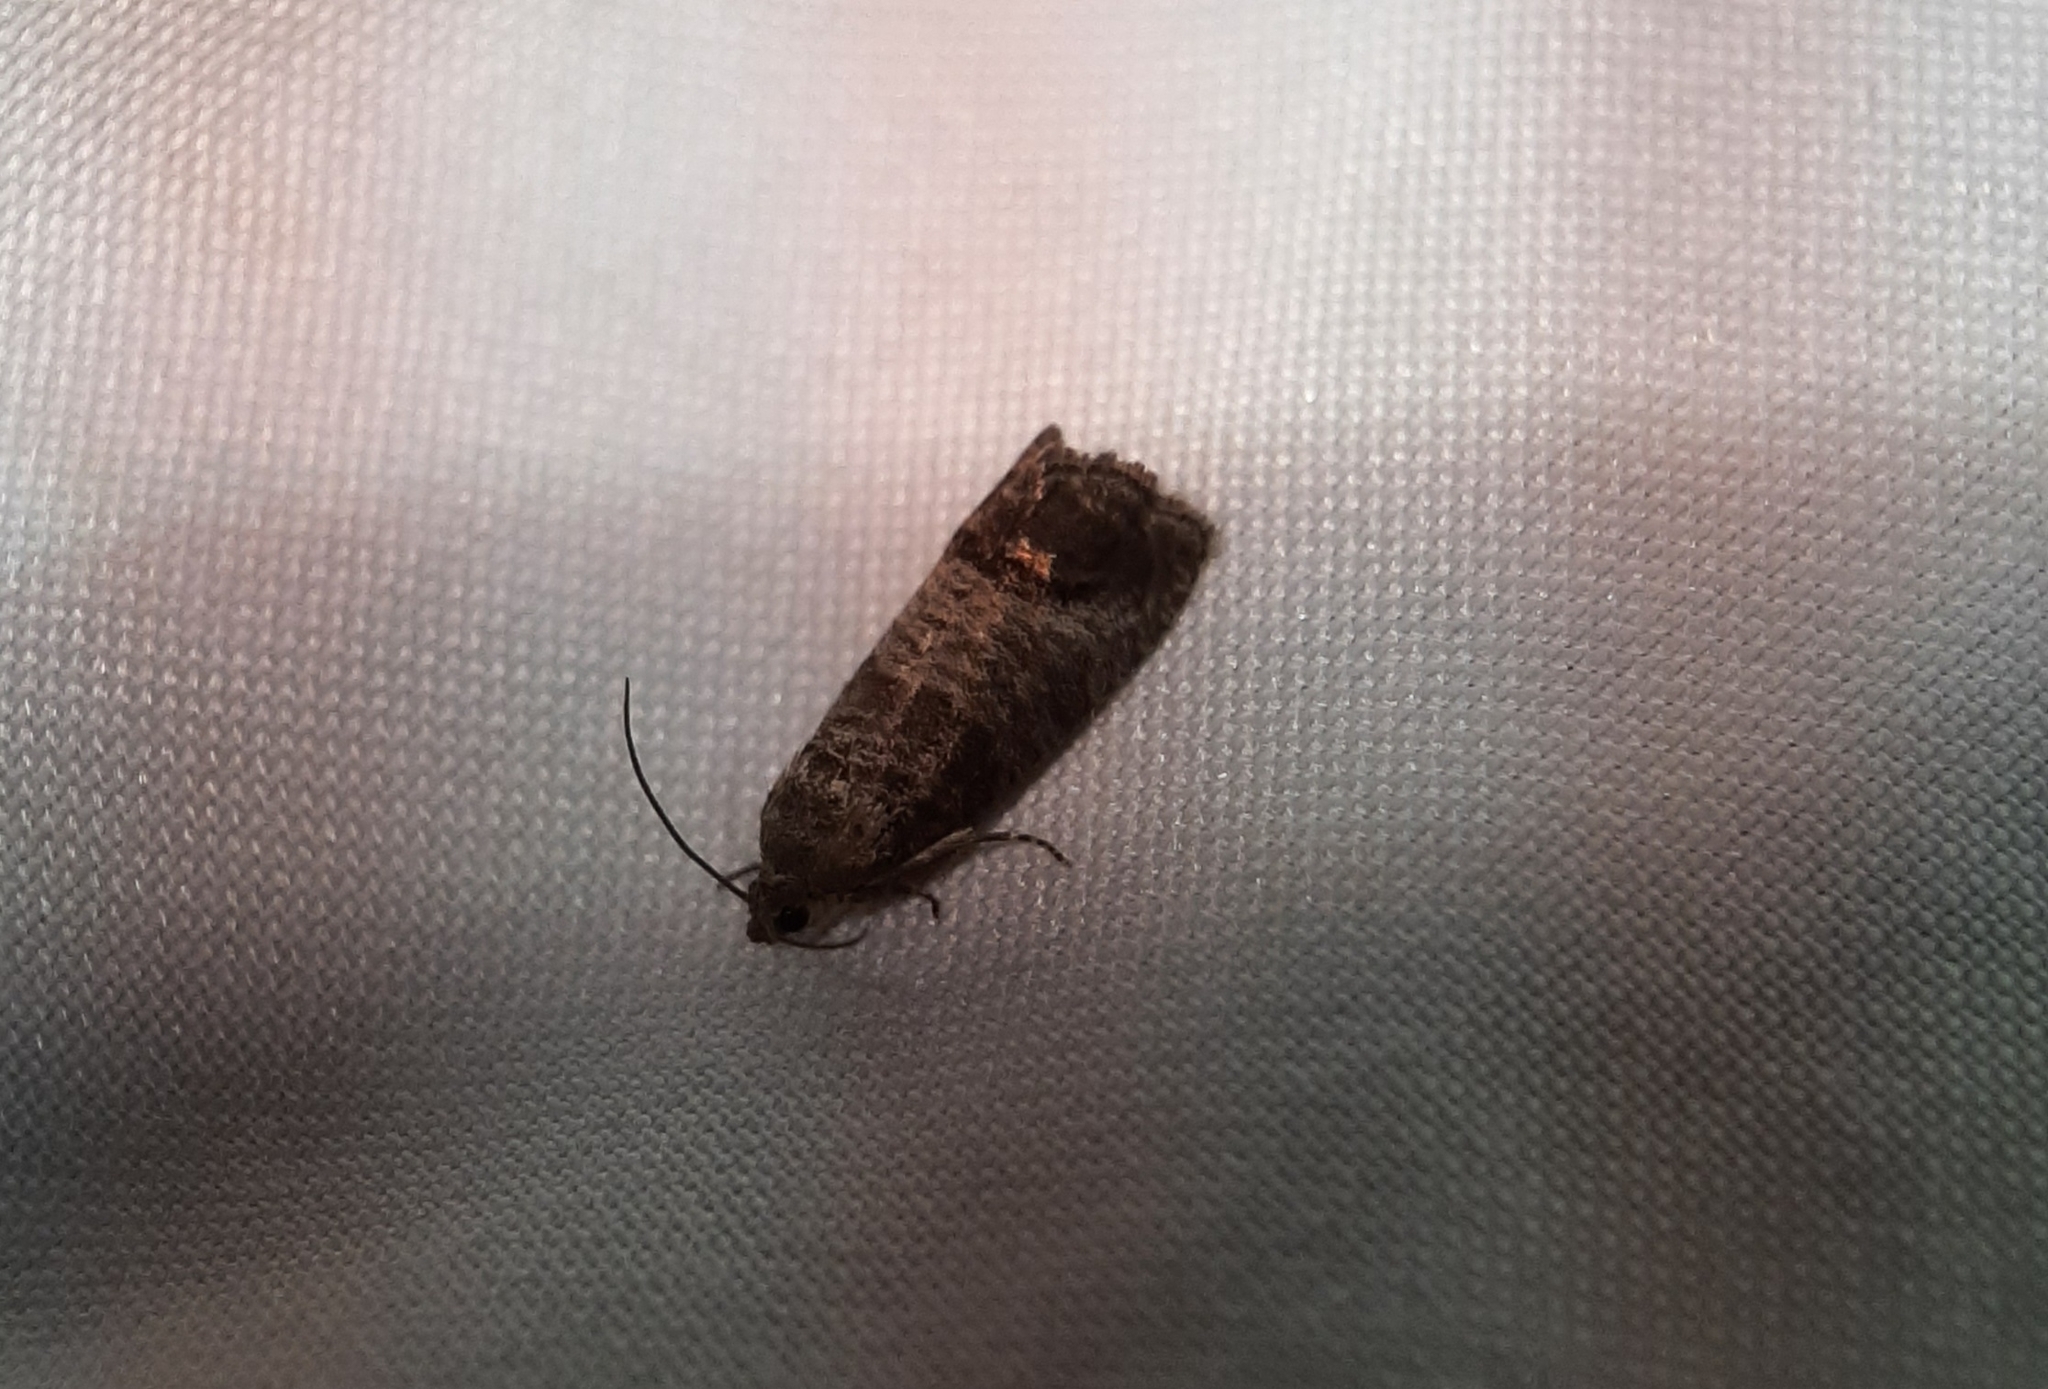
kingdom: Animalia
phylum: Arthropoda
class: Insecta
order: Lepidoptera
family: Tortricidae
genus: Cydia
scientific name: Cydia pomonella
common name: Codling moth
